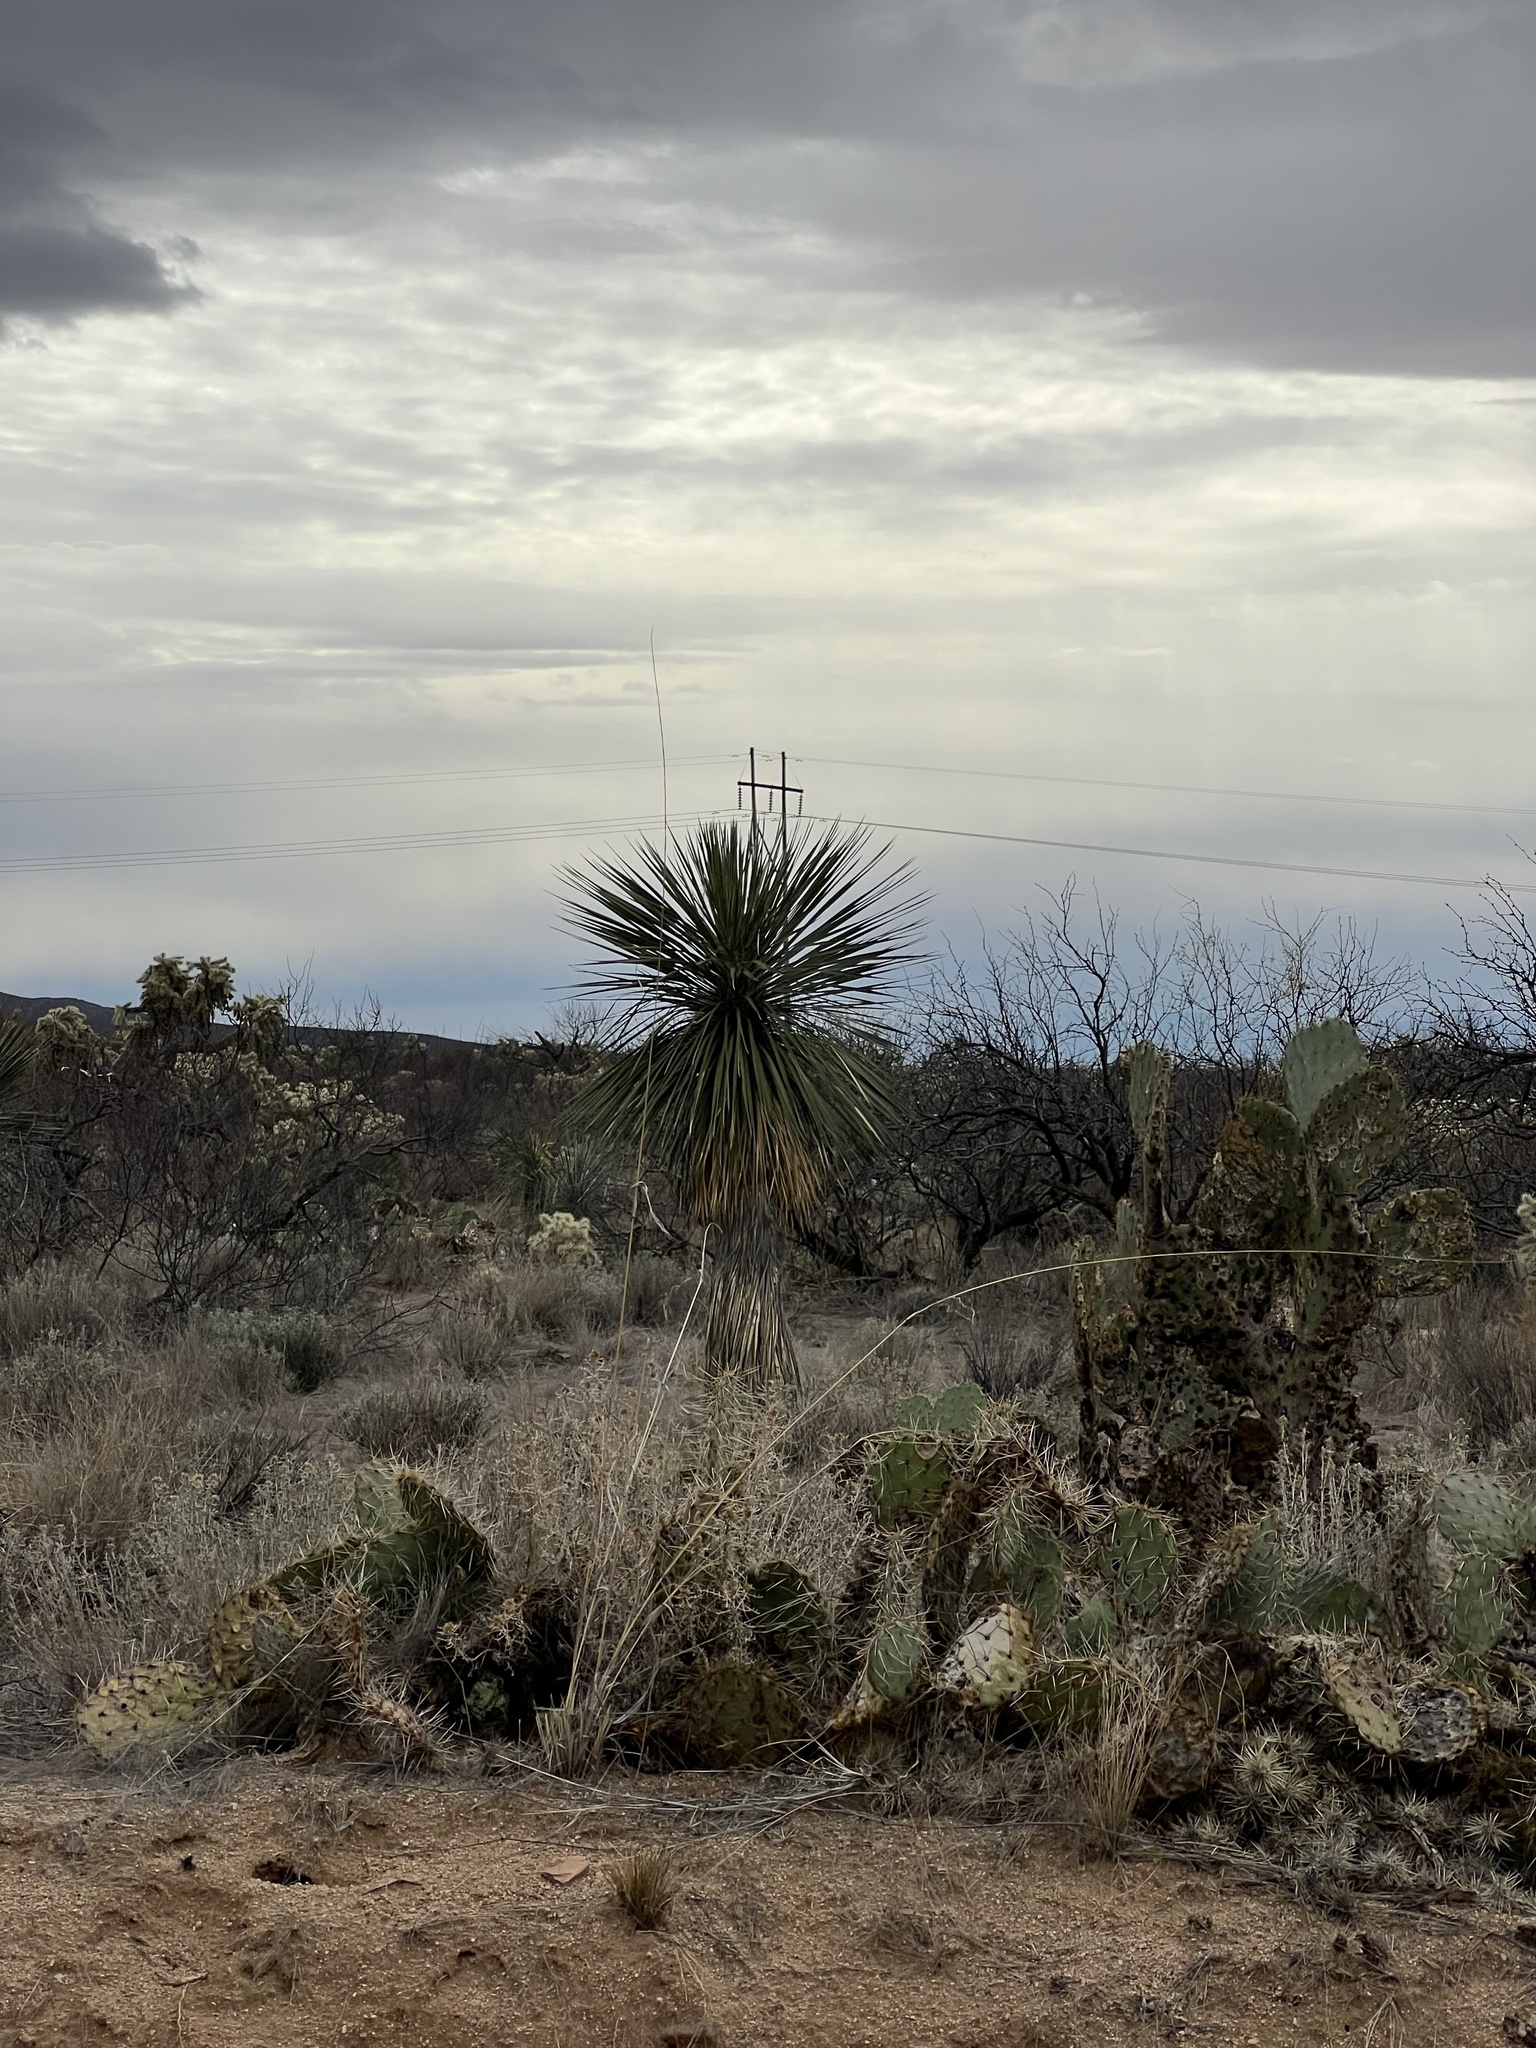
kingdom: Plantae
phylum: Tracheophyta
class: Liliopsida
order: Asparagales
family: Asparagaceae
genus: Yucca
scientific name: Yucca elata
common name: Palmella
